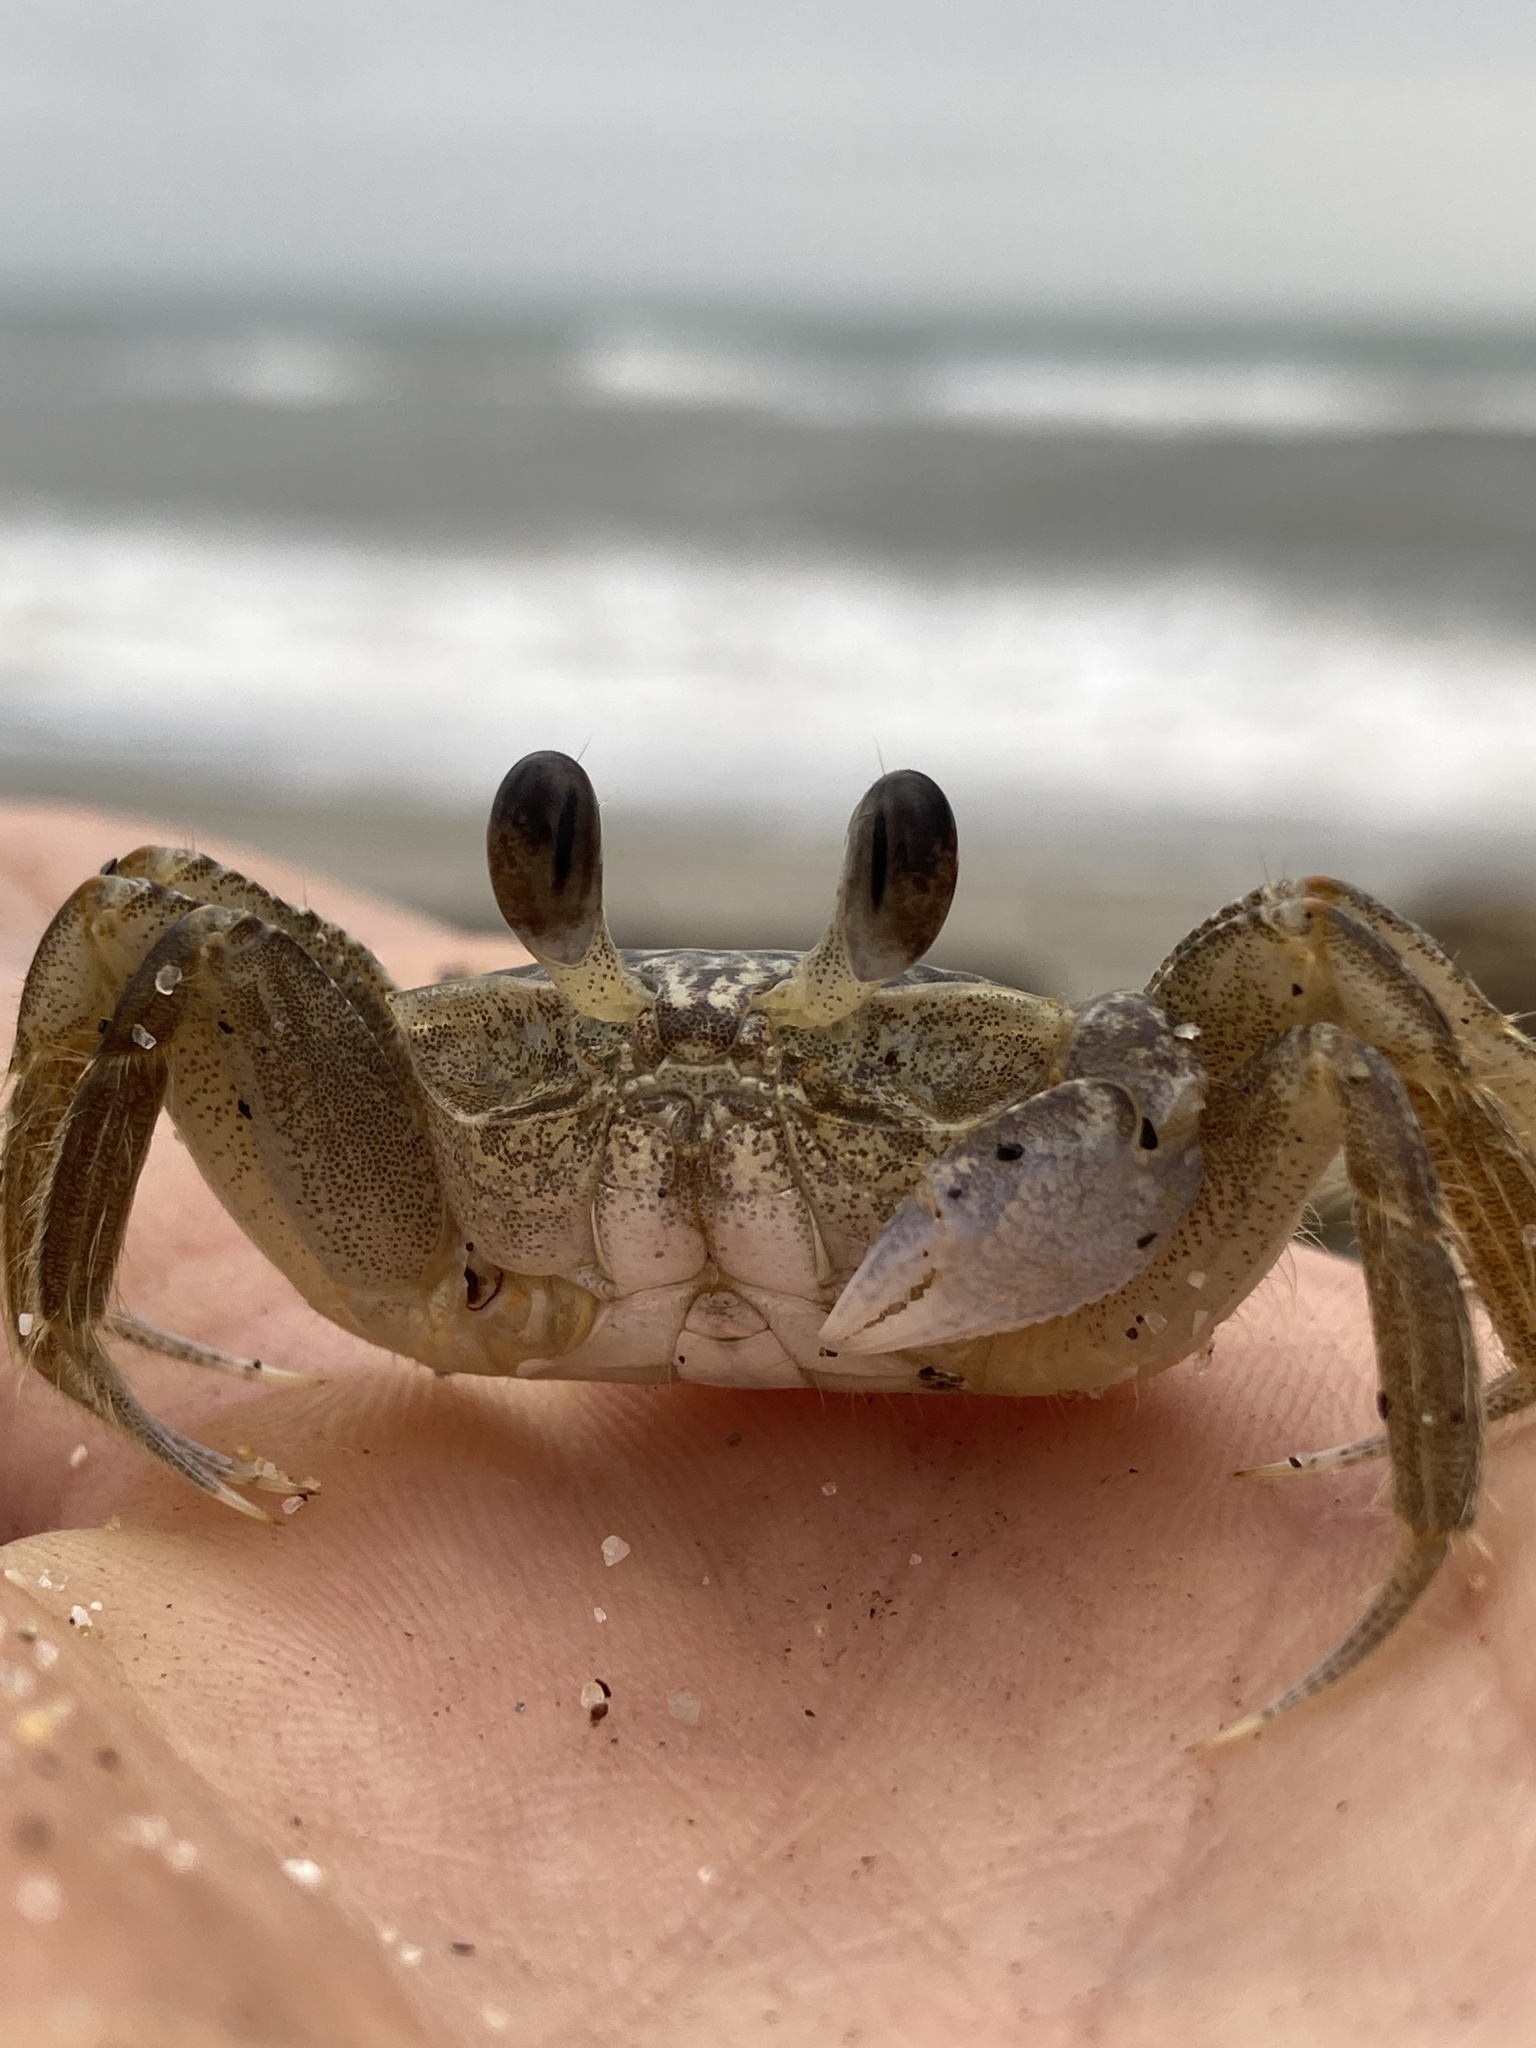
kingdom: Animalia
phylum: Arthropoda
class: Malacostraca
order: Decapoda
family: Ocypodidae
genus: Ocypode
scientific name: Ocypode quadrata
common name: Ghost crab
